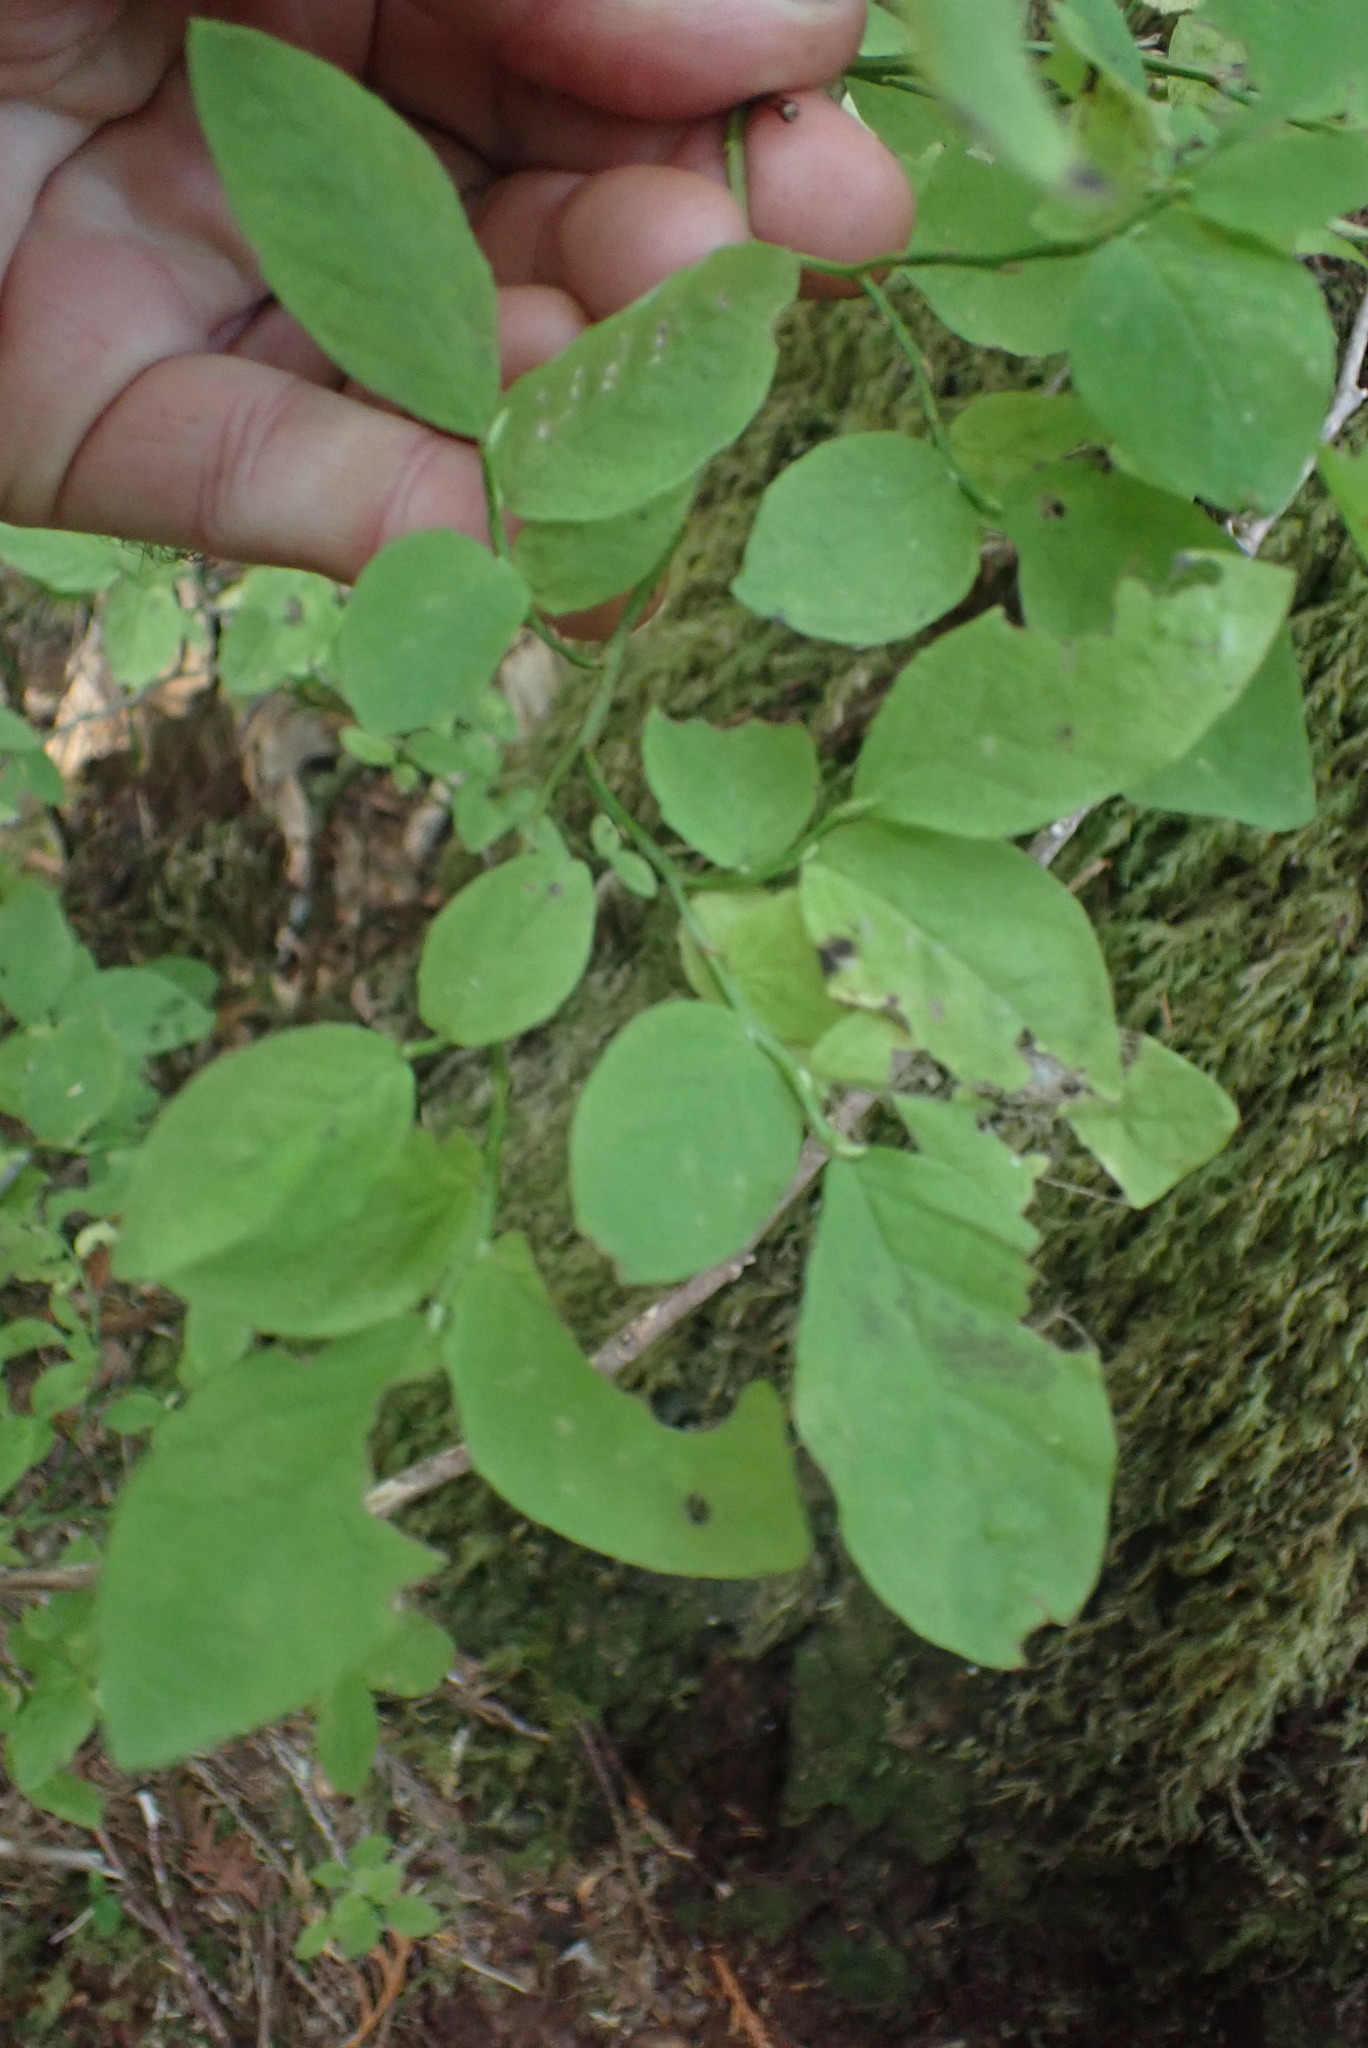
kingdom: Plantae
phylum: Tracheophyta
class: Magnoliopsida
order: Ericales
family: Ericaceae
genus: Vaccinium
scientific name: Vaccinium parvifolium
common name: Red-huckleberry
